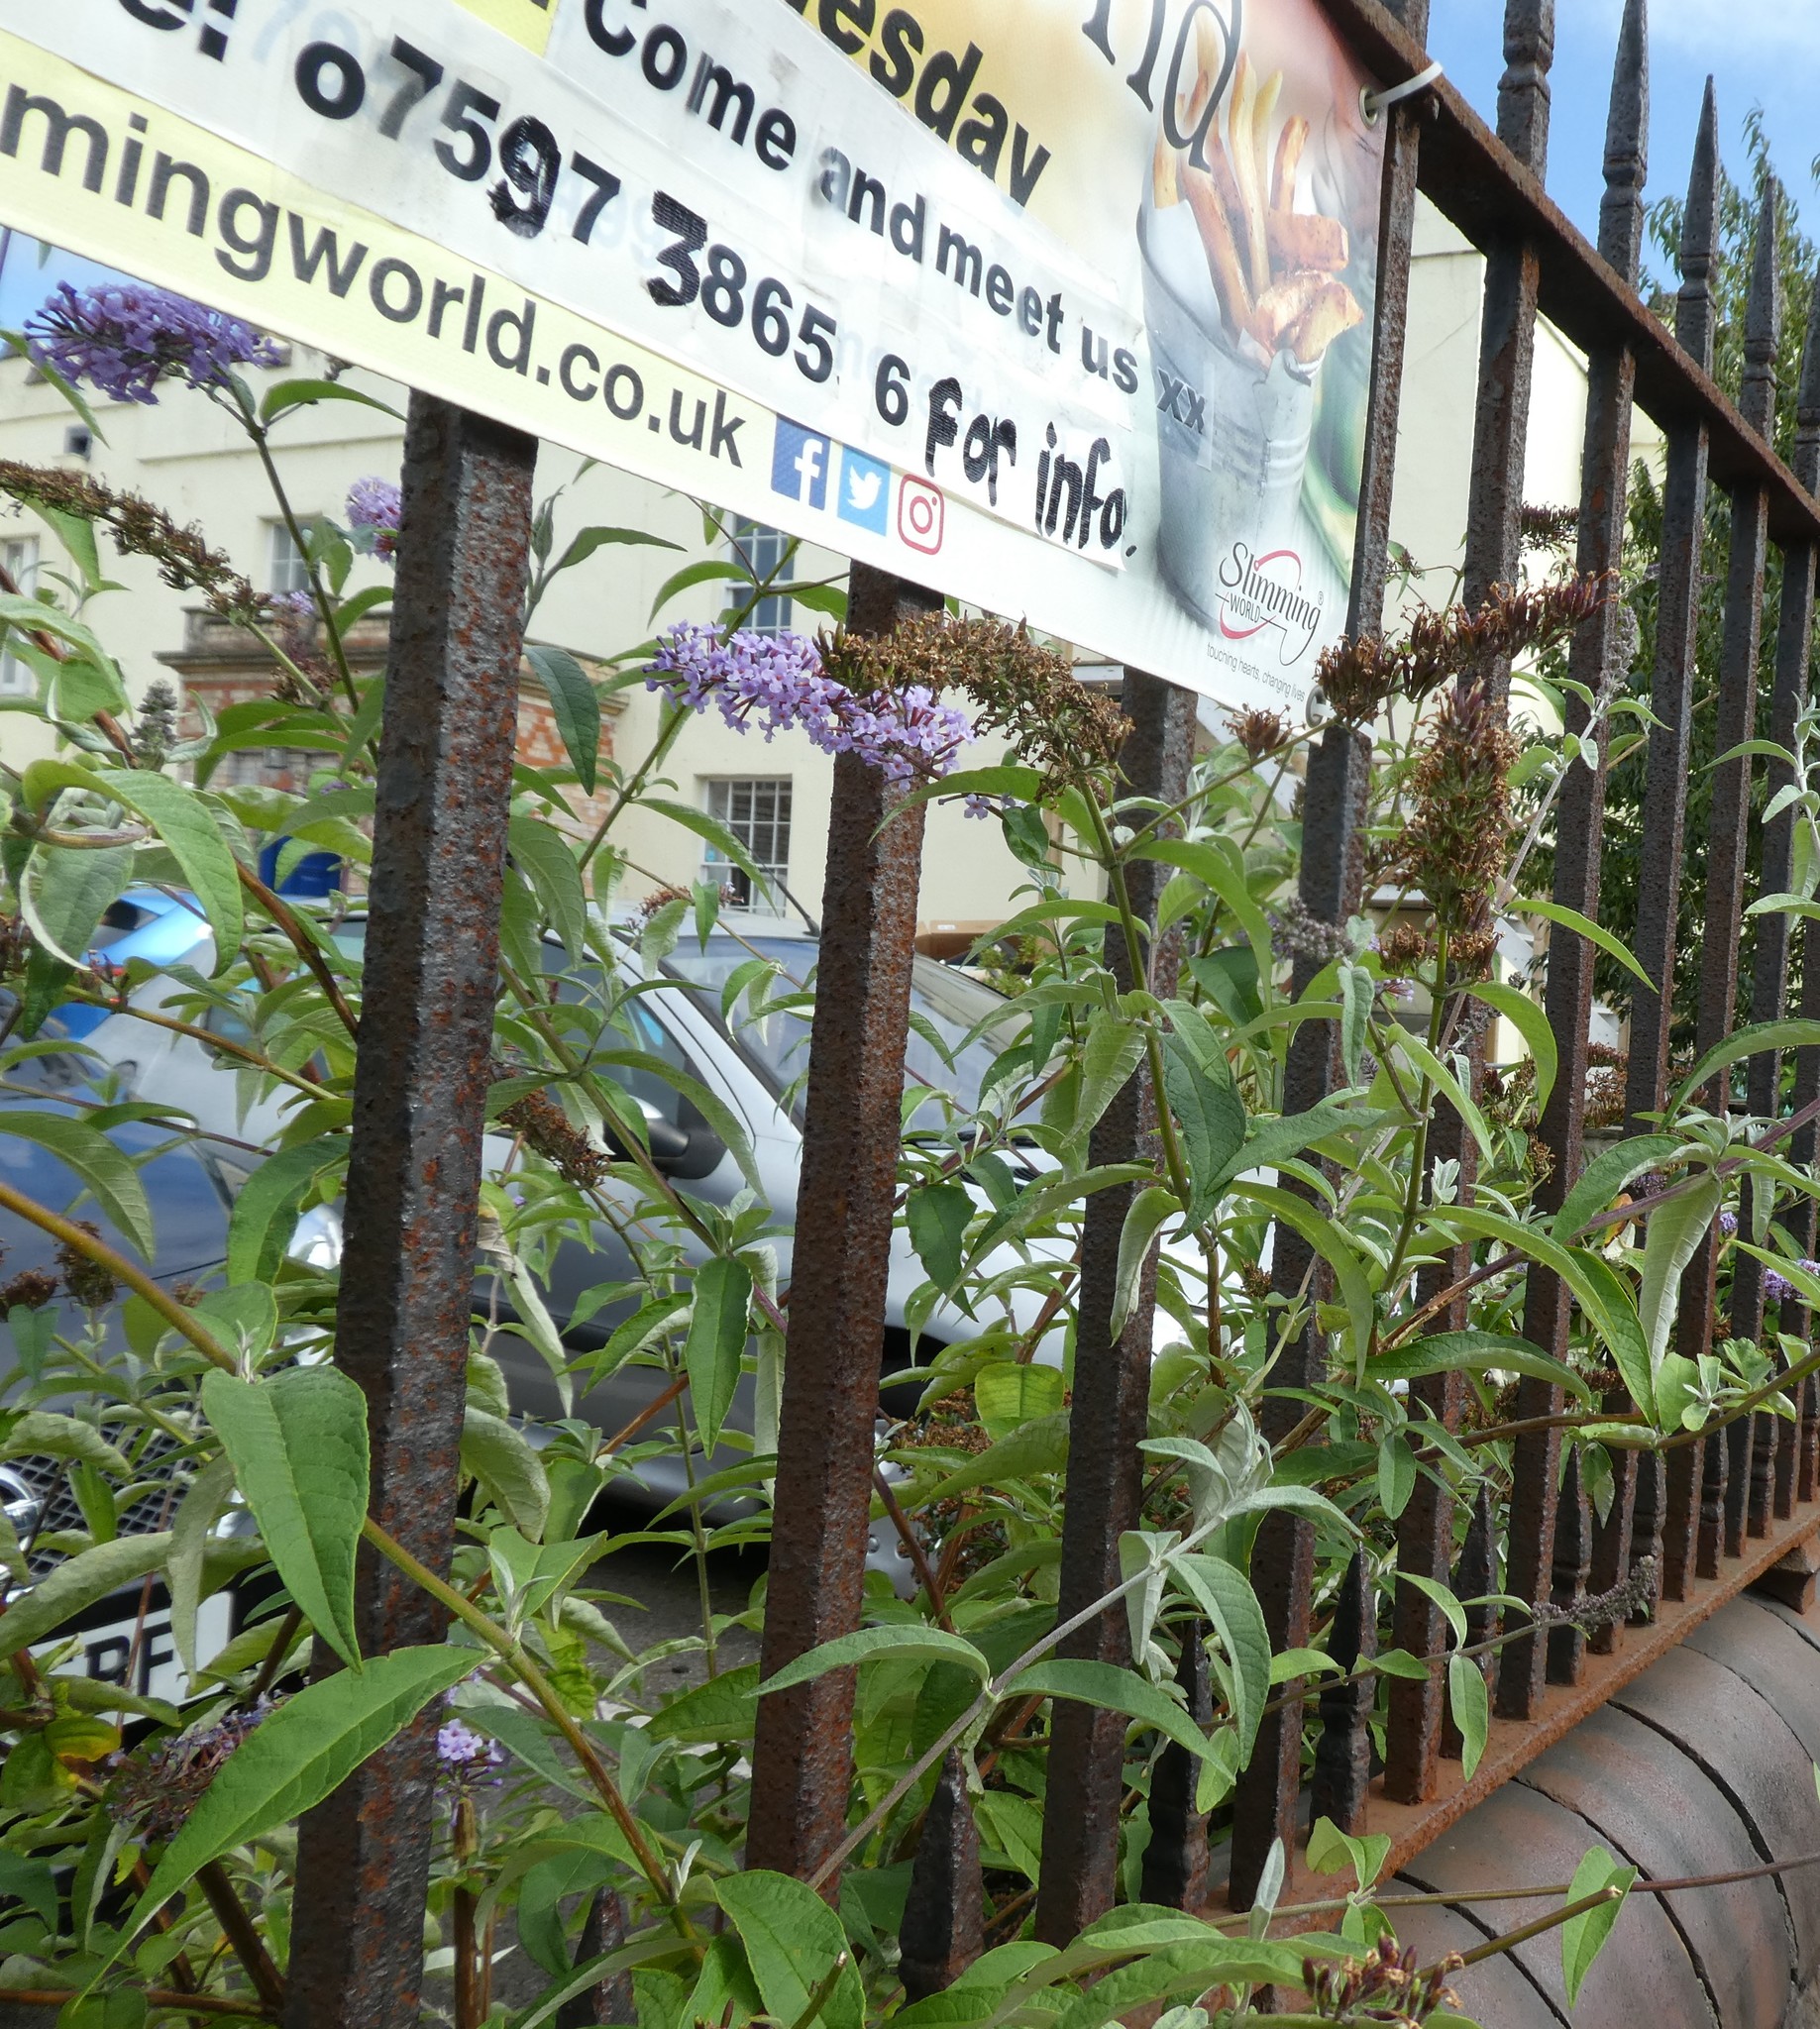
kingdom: Plantae
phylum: Tracheophyta
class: Magnoliopsida
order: Lamiales
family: Scrophulariaceae
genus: Buddleja
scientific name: Buddleja davidii
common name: Butterfly-bush
